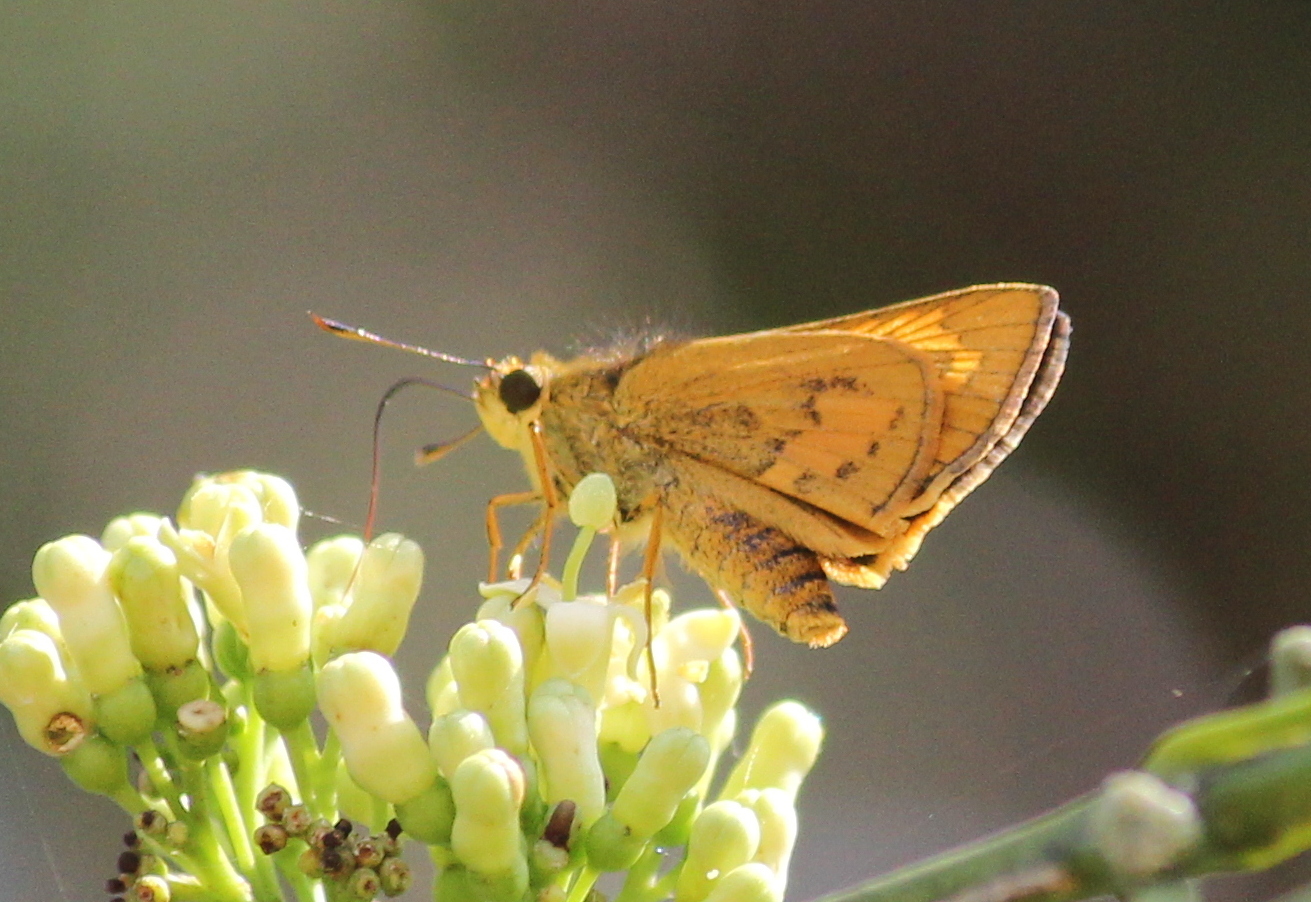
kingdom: Animalia
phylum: Arthropoda
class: Insecta
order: Lepidoptera
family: Hesperiidae
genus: Telicota
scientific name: Telicota bambusae
